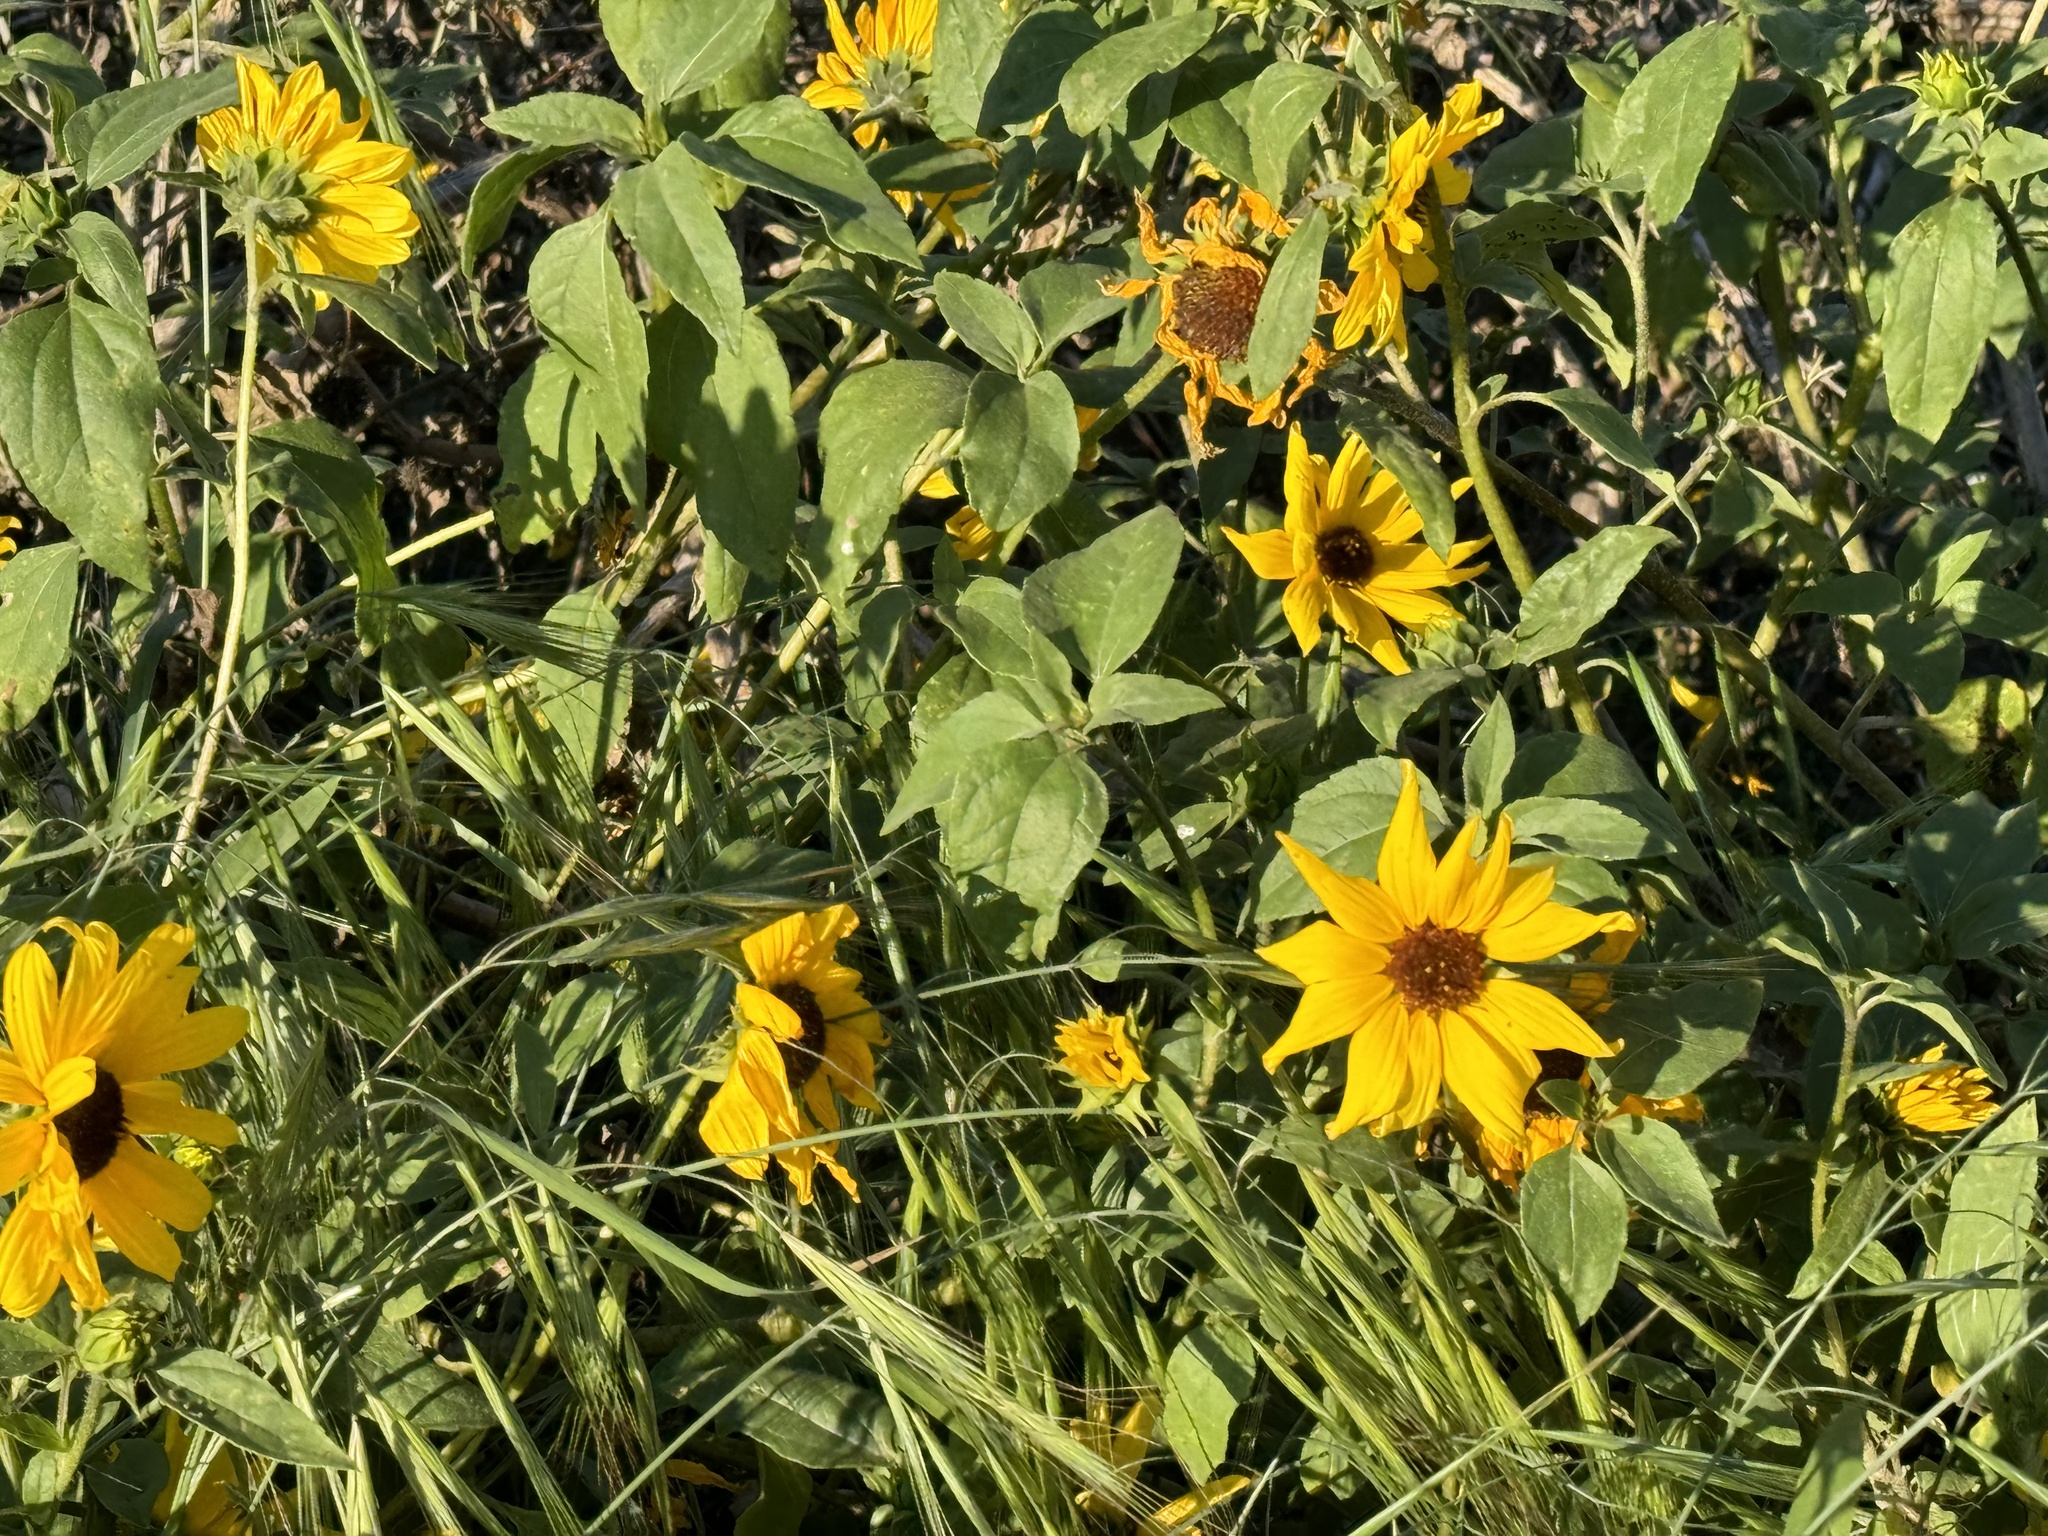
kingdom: Plantae
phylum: Tracheophyta
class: Magnoliopsida
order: Asterales
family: Asteraceae
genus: Helianthus
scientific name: Helianthus annuus
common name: Sunflower
